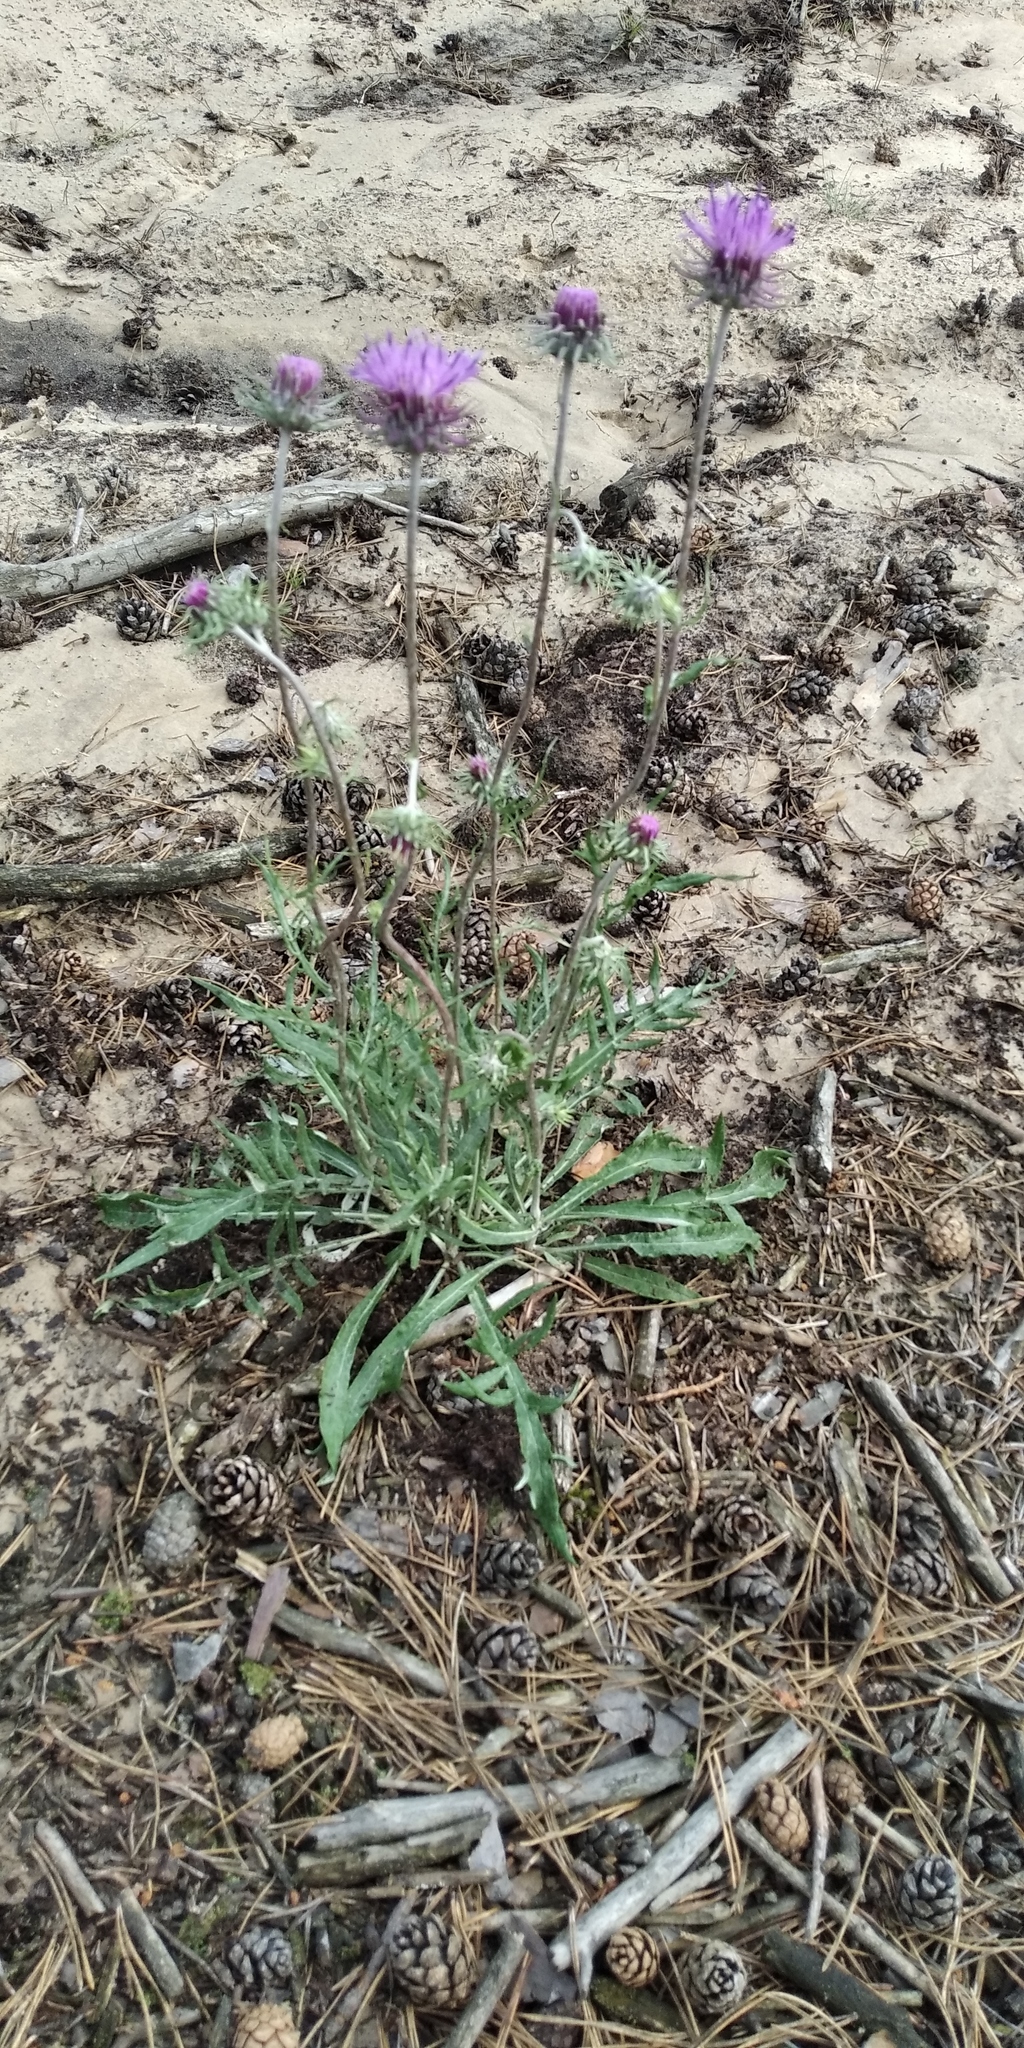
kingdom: Plantae
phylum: Tracheophyta
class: Magnoliopsida
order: Asterales
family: Asteraceae
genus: Jurinea
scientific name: Jurinea cyanoides
